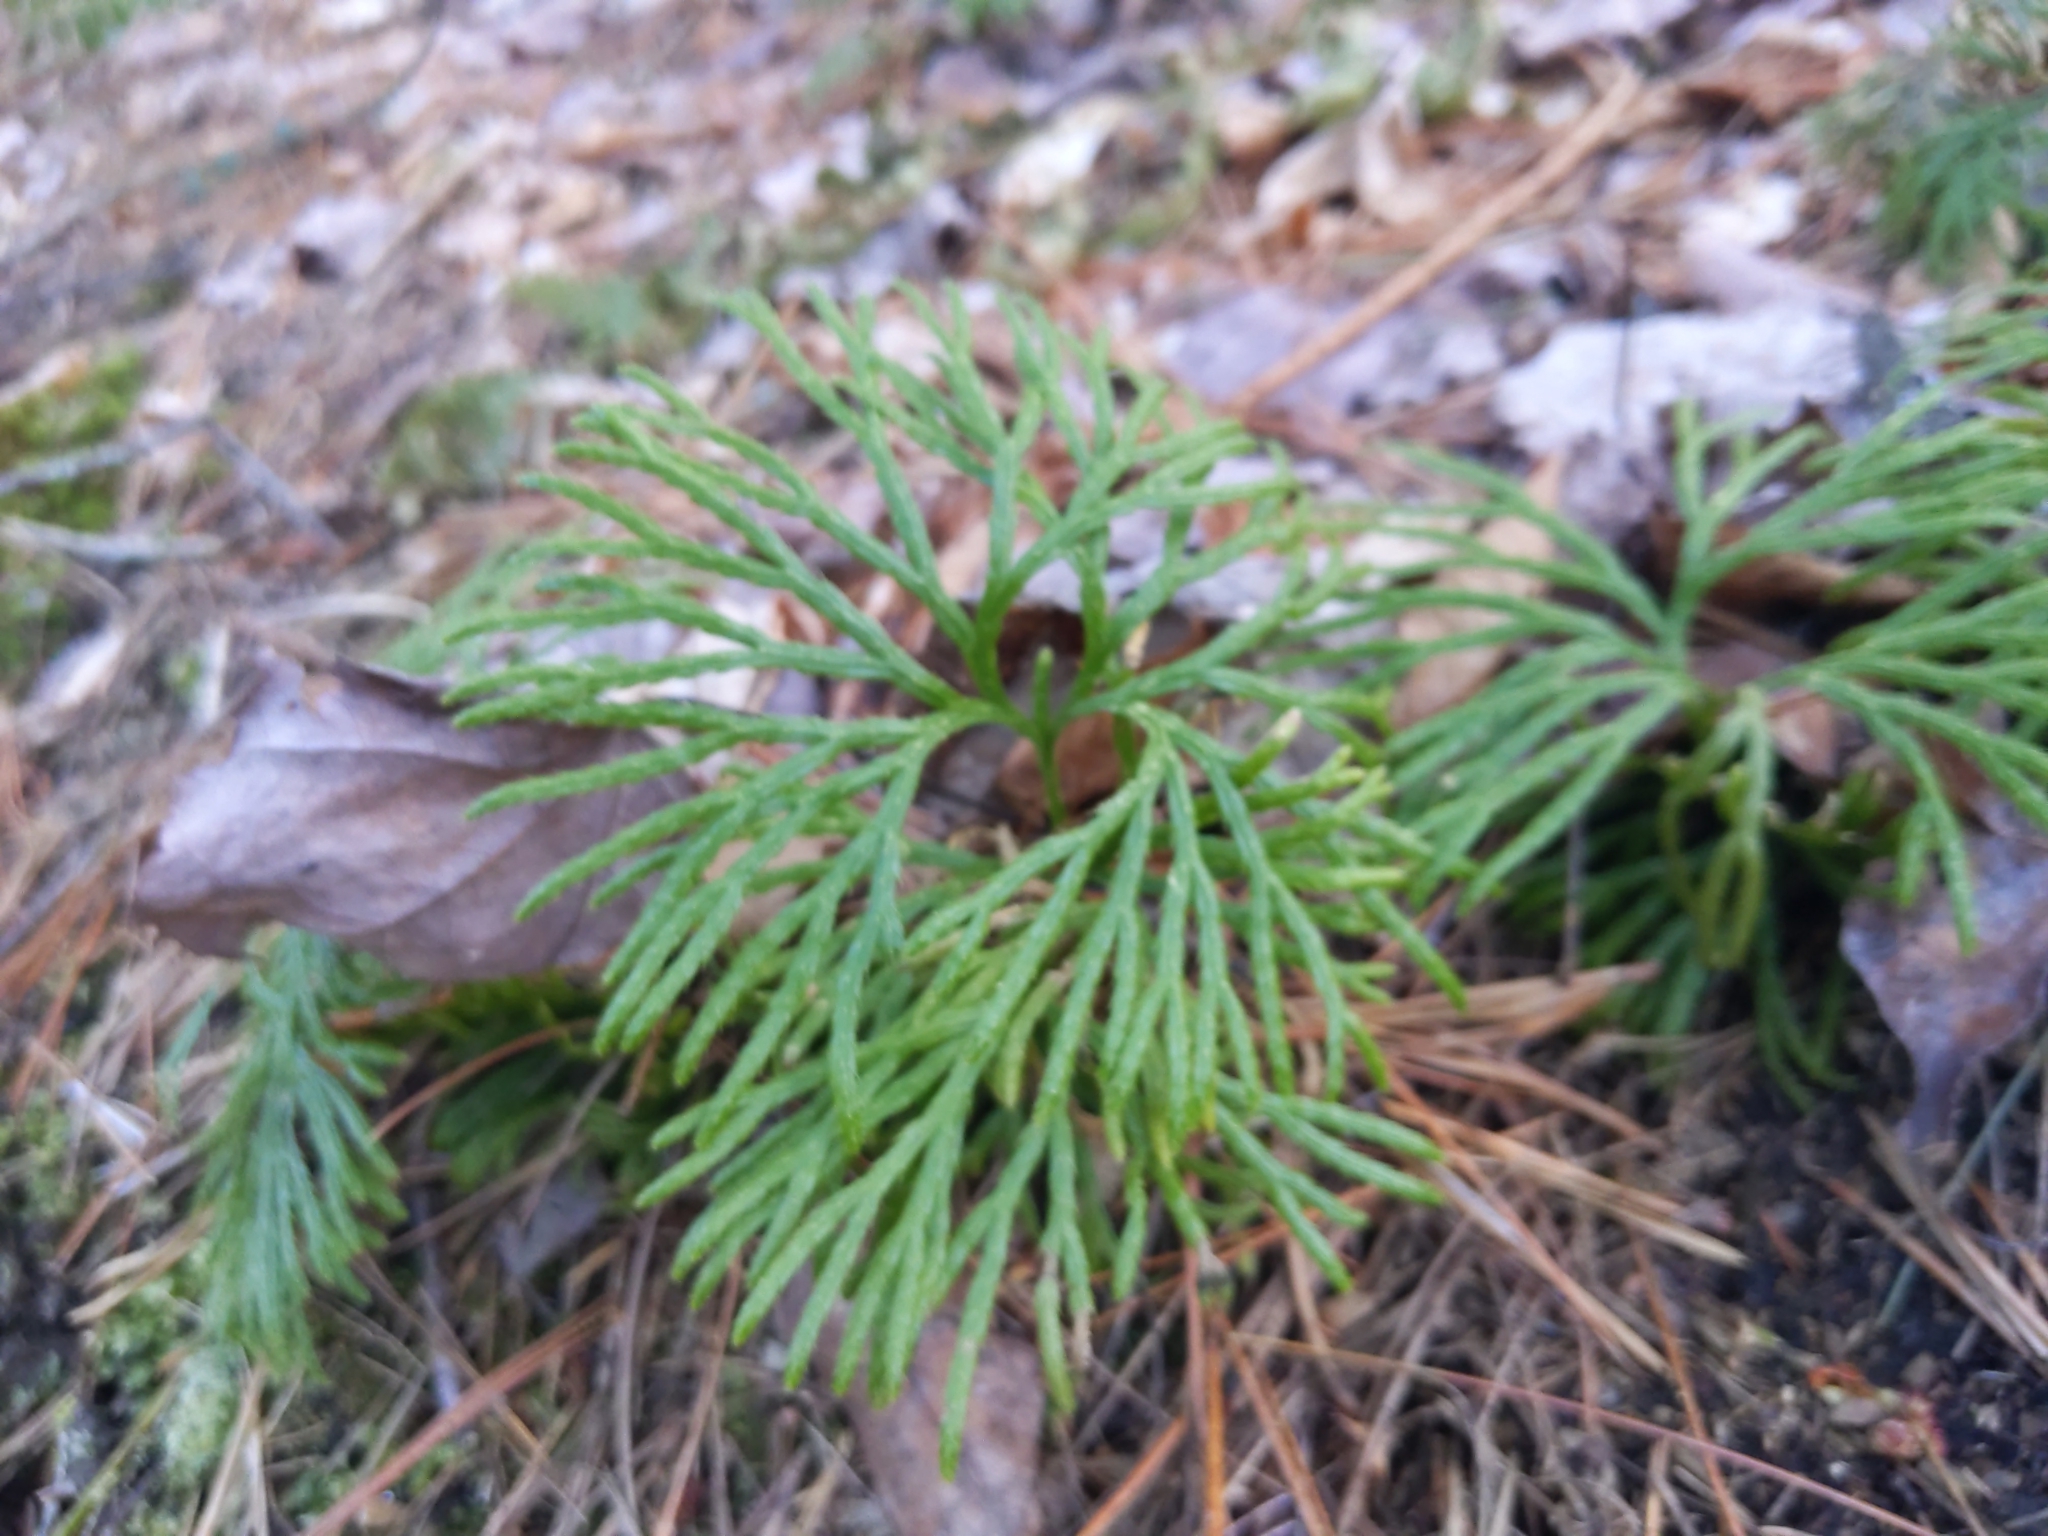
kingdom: Plantae
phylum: Tracheophyta
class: Lycopodiopsida
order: Lycopodiales
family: Lycopodiaceae
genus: Diphasiastrum
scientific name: Diphasiastrum digitatum
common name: Southern running-pine
